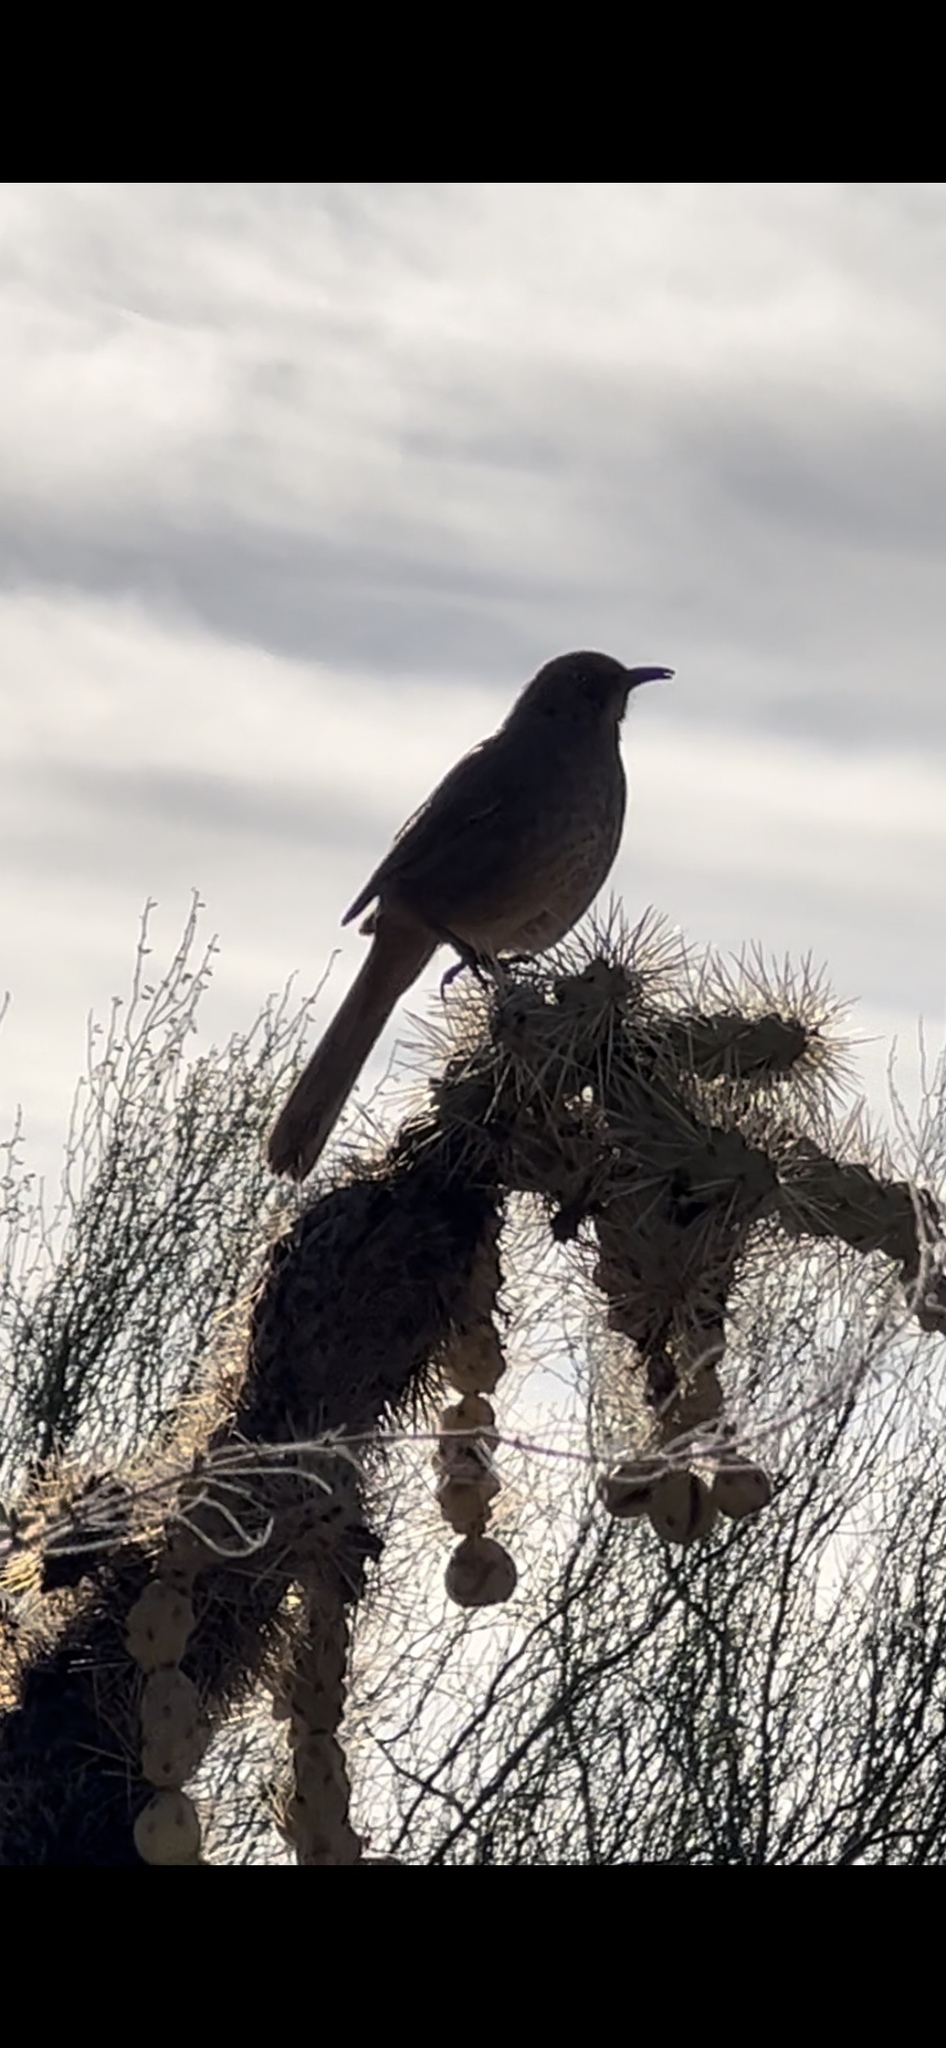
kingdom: Animalia
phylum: Chordata
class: Aves
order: Passeriformes
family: Mimidae
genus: Toxostoma
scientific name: Toxostoma curvirostre
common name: Curve-billed thrasher
